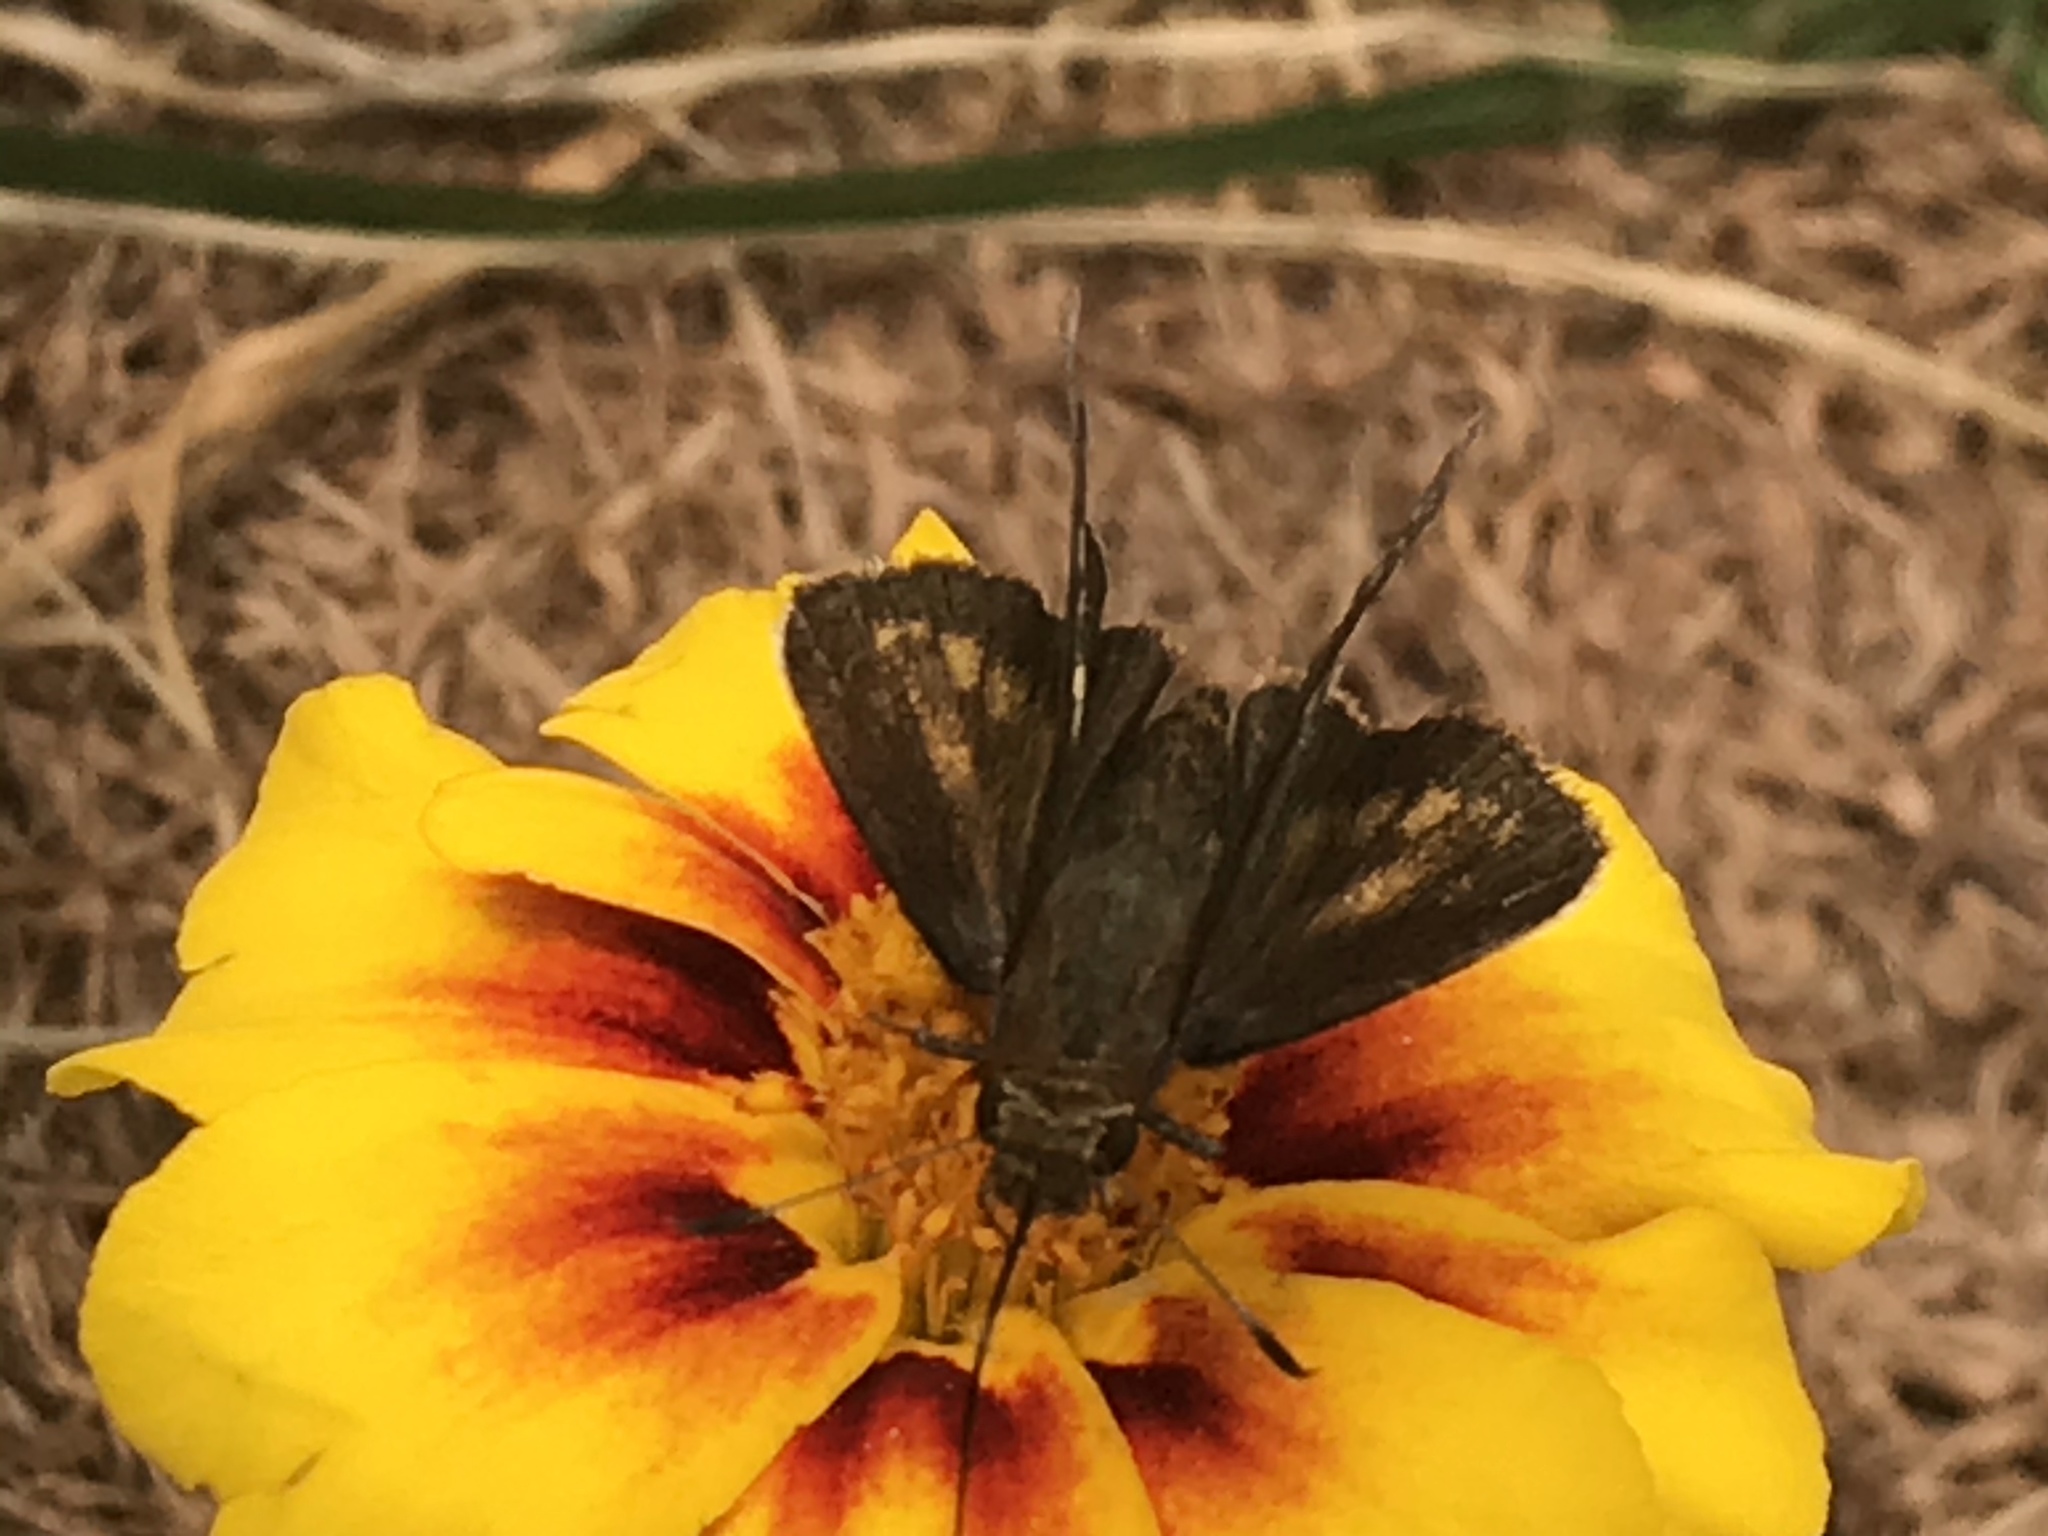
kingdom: Animalia
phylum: Arthropoda
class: Insecta
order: Lepidoptera
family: Hesperiidae
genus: Lon
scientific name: Lon zabulon
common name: Zabulon skipper
